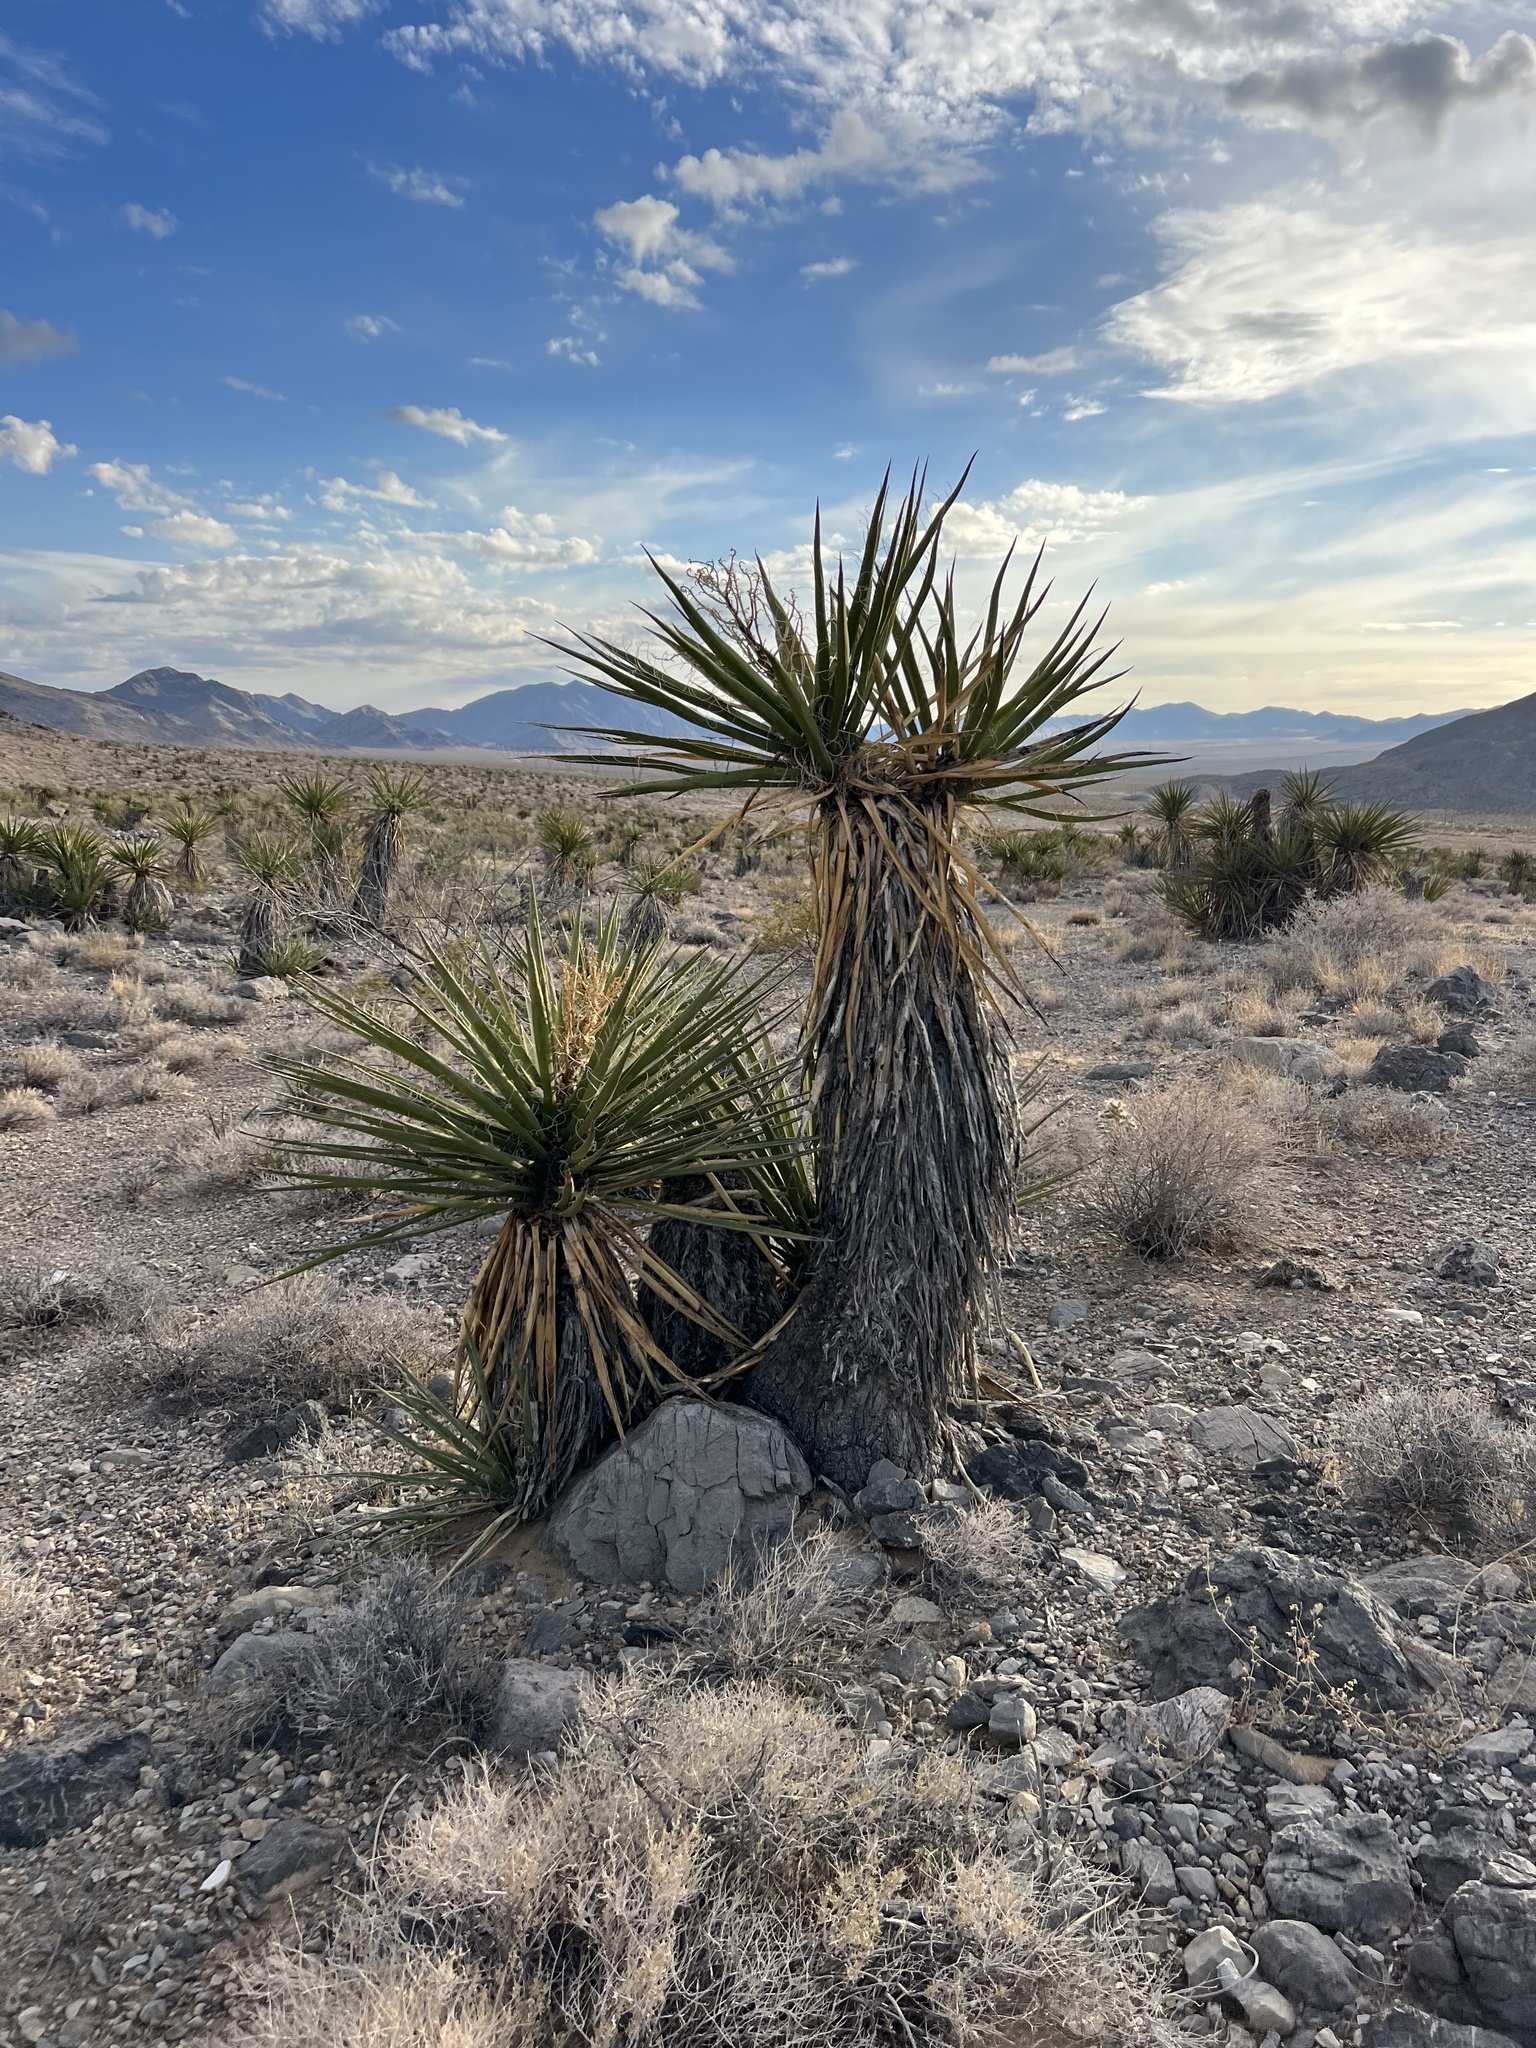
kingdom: Plantae
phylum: Tracheophyta
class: Liliopsida
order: Asparagales
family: Asparagaceae
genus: Yucca
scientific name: Yucca schidigera
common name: Mojave yucca
